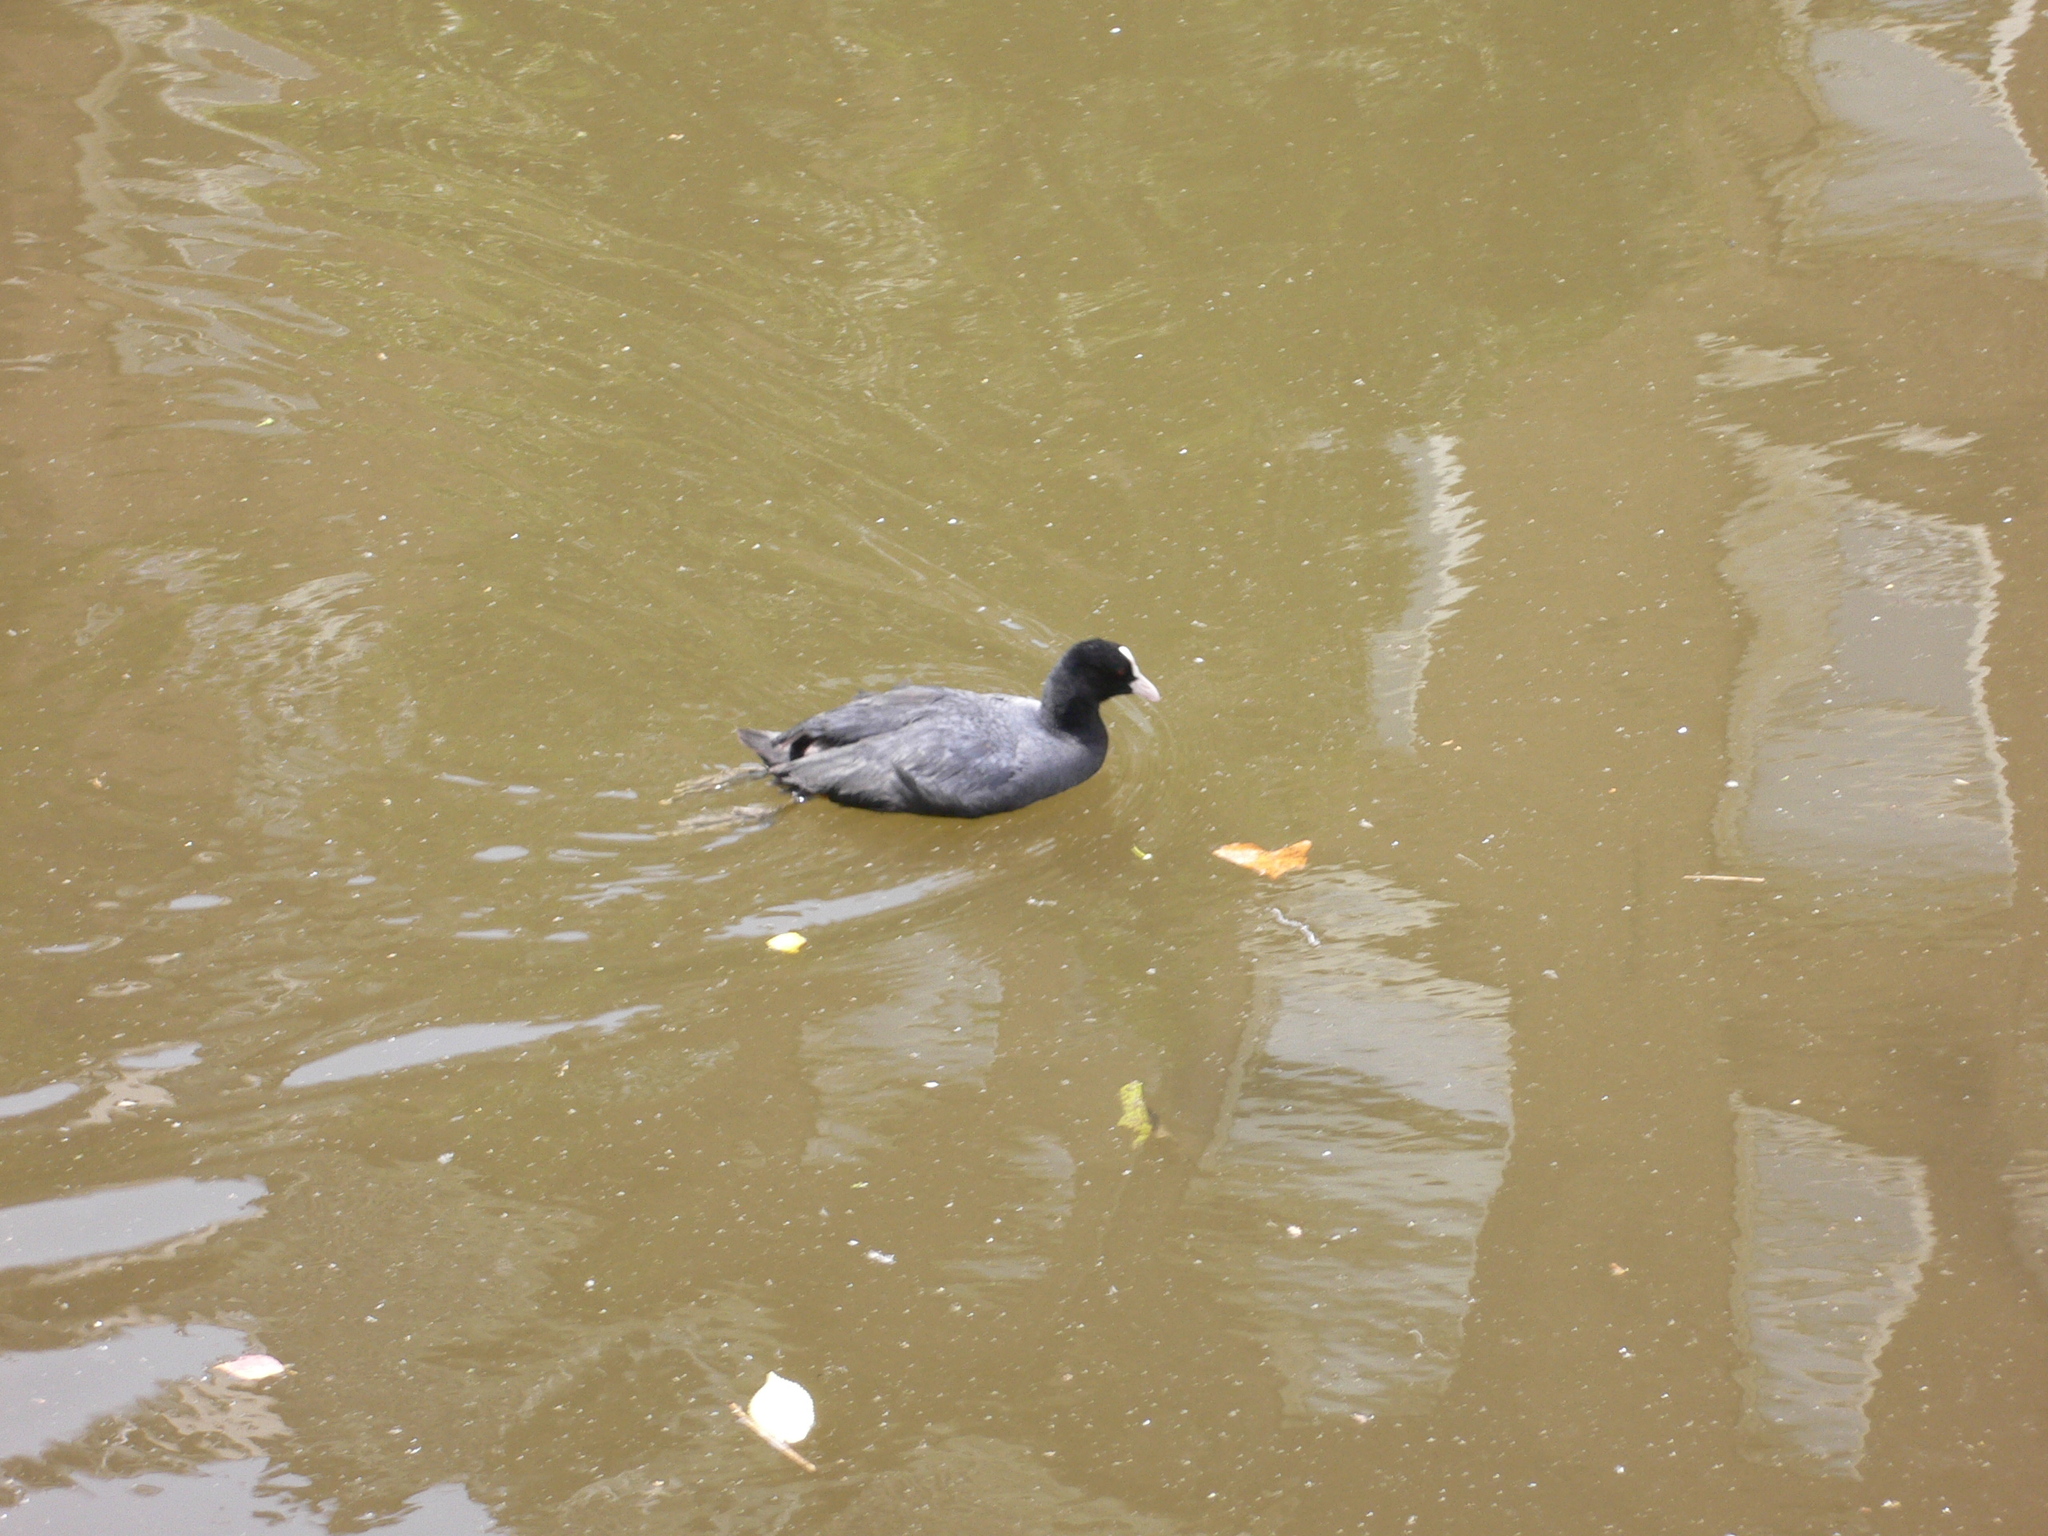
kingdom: Animalia
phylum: Chordata
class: Aves
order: Gruiformes
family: Rallidae
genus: Fulica
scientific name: Fulica atra
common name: Eurasian coot
